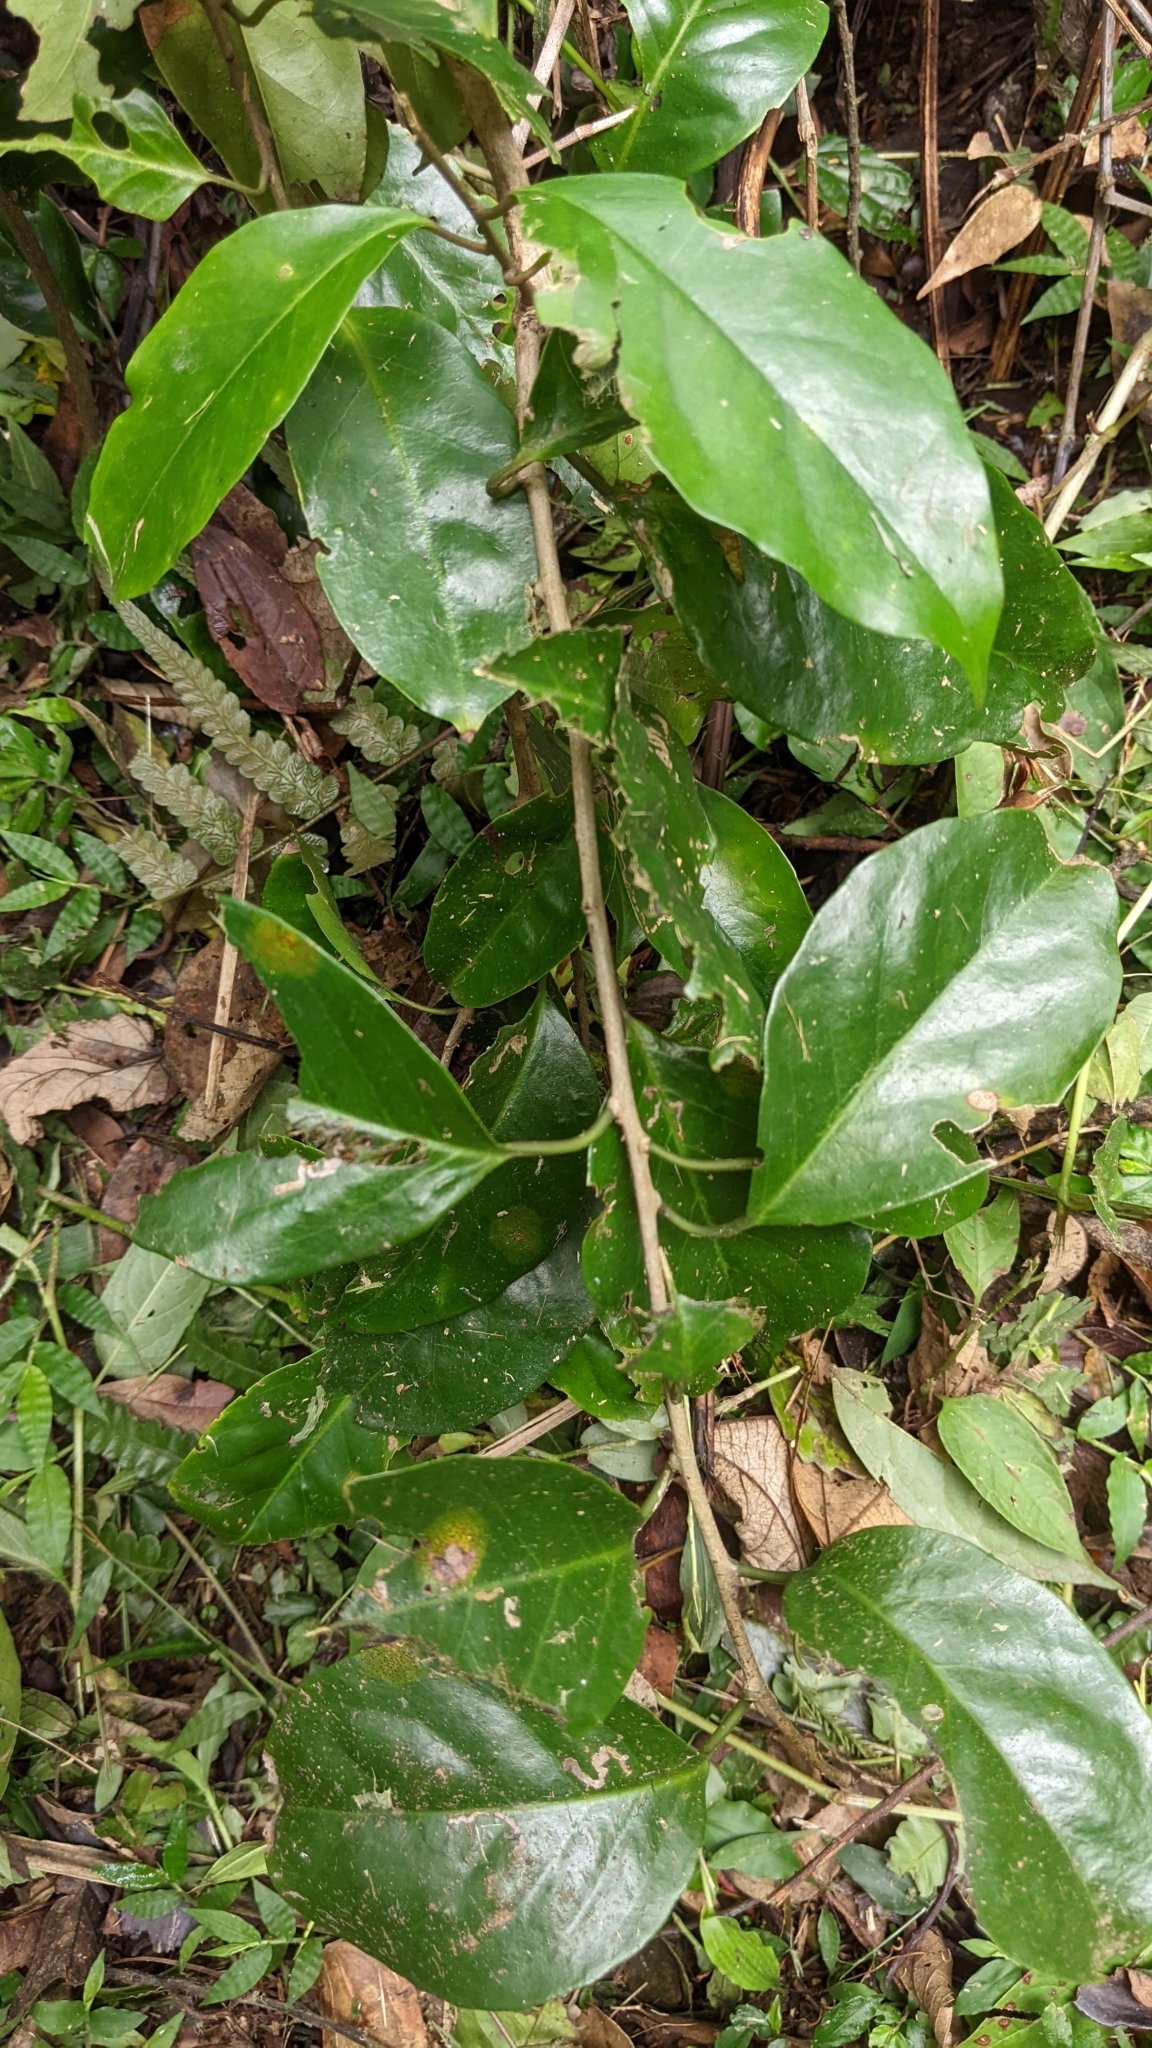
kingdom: Plantae
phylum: Tracheophyta
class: Magnoliopsida
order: Solanales
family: Convolvulaceae
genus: Erycibe
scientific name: Erycibe henryi
